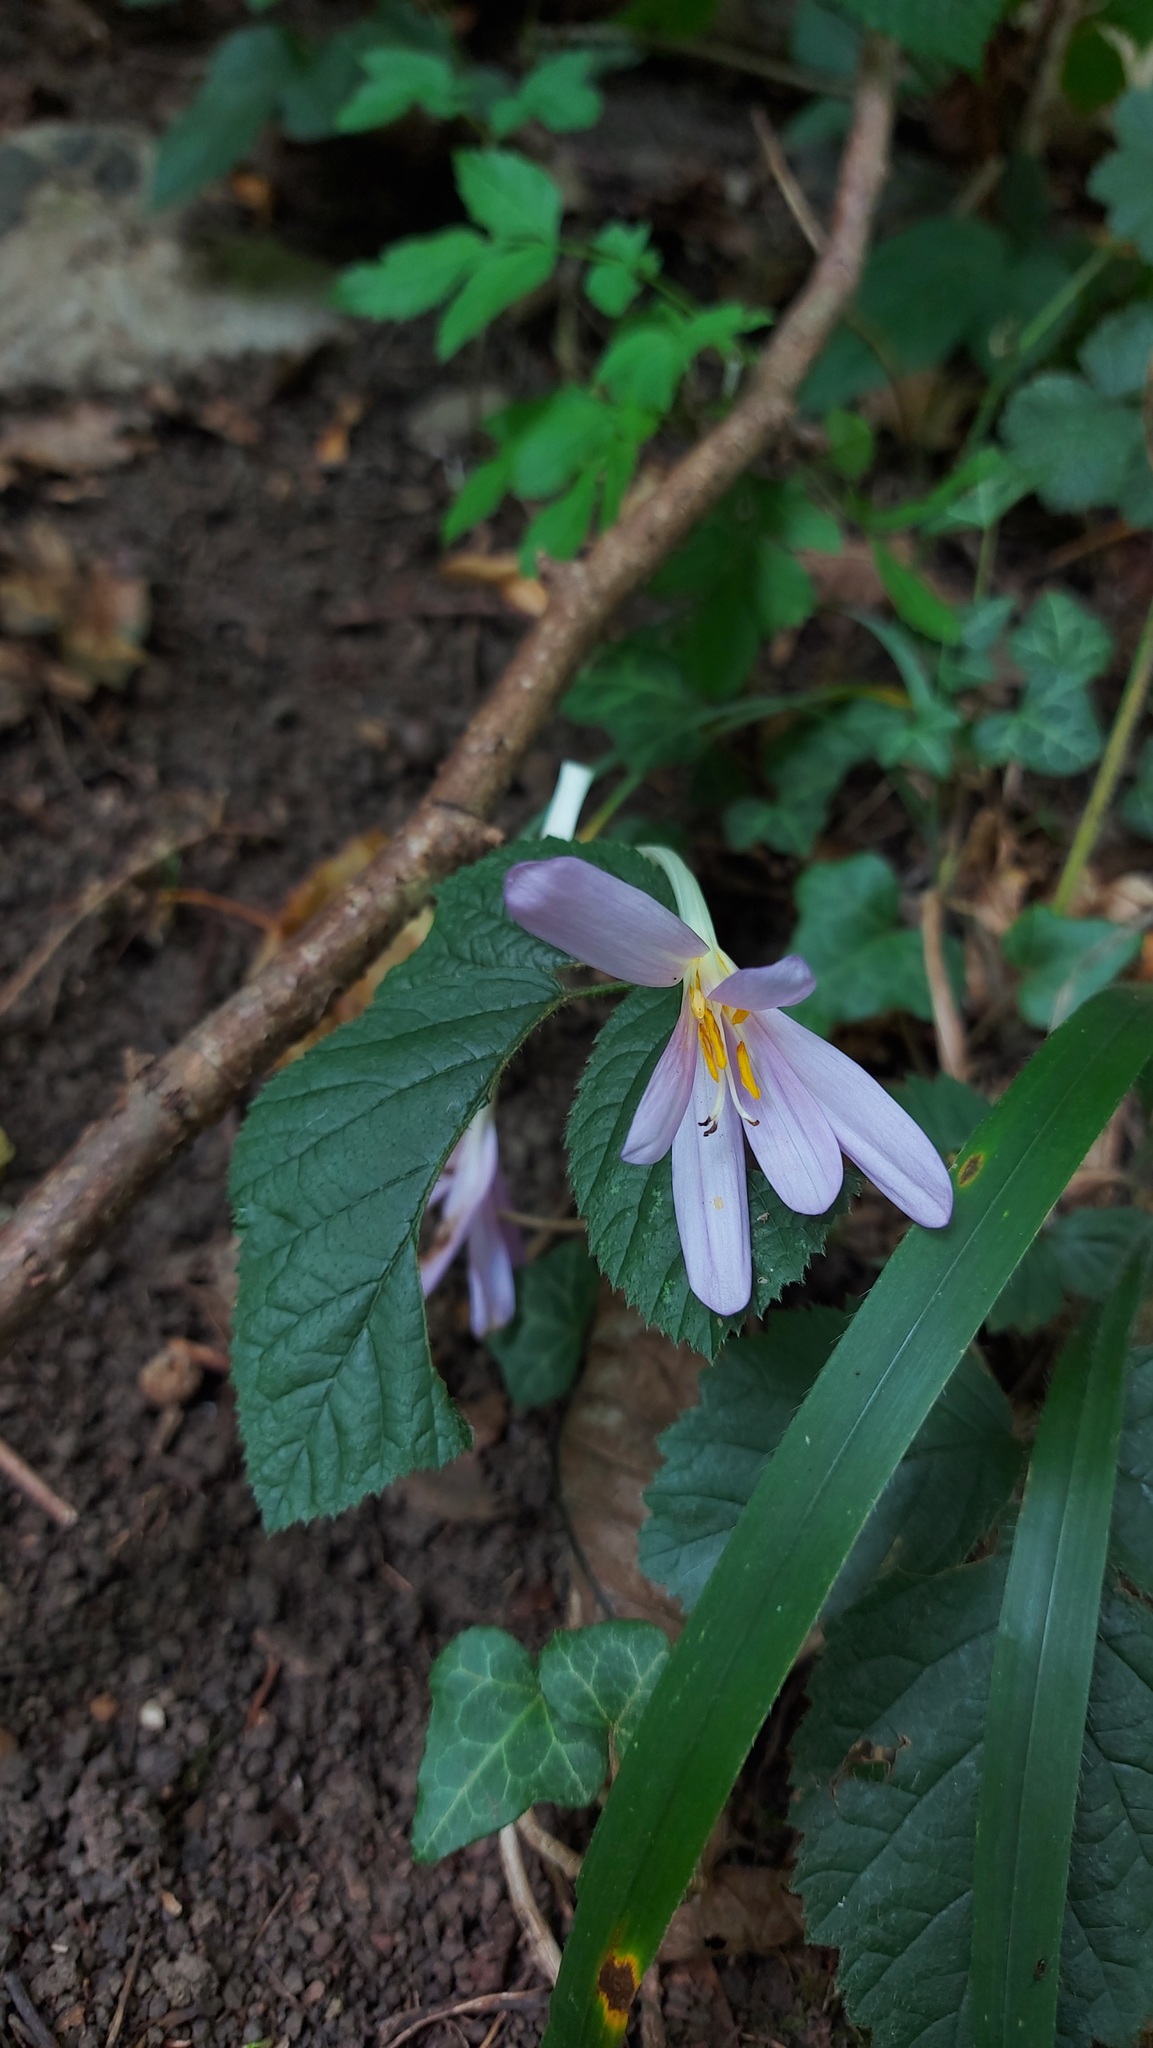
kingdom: Plantae
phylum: Tracheophyta
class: Liliopsida
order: Liliales
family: Colchicaceae
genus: Colchicum
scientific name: Colchicum autumnale
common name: Autumn crocus
